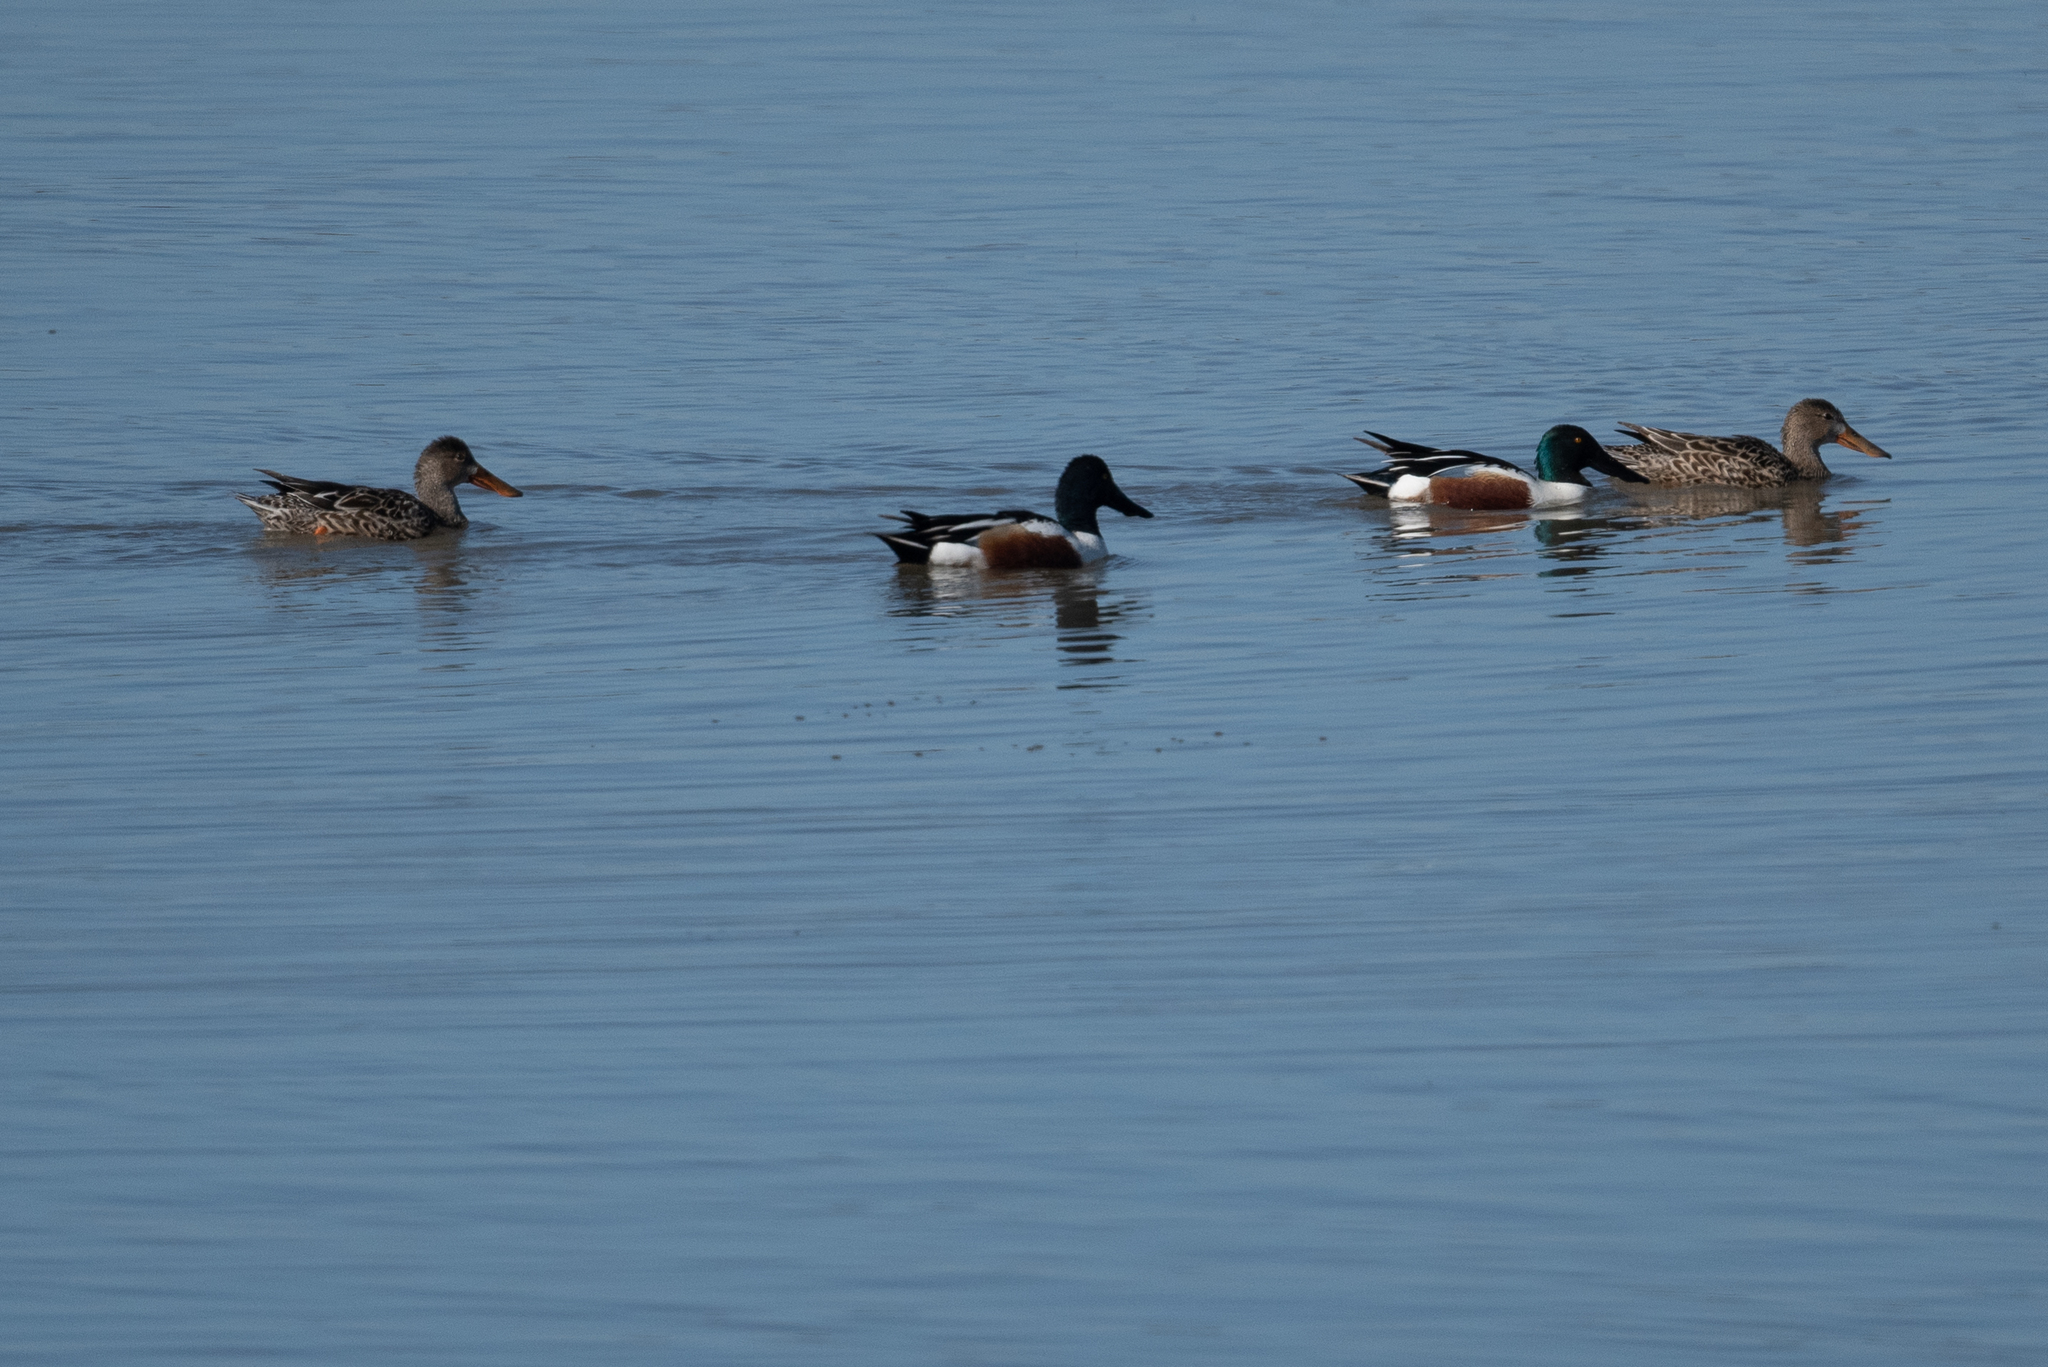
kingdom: Animalia
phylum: Chordata
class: Aves
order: Anseriformes
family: Anatidae
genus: Spatula
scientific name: Spatula clypeata
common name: Northern shoveler
